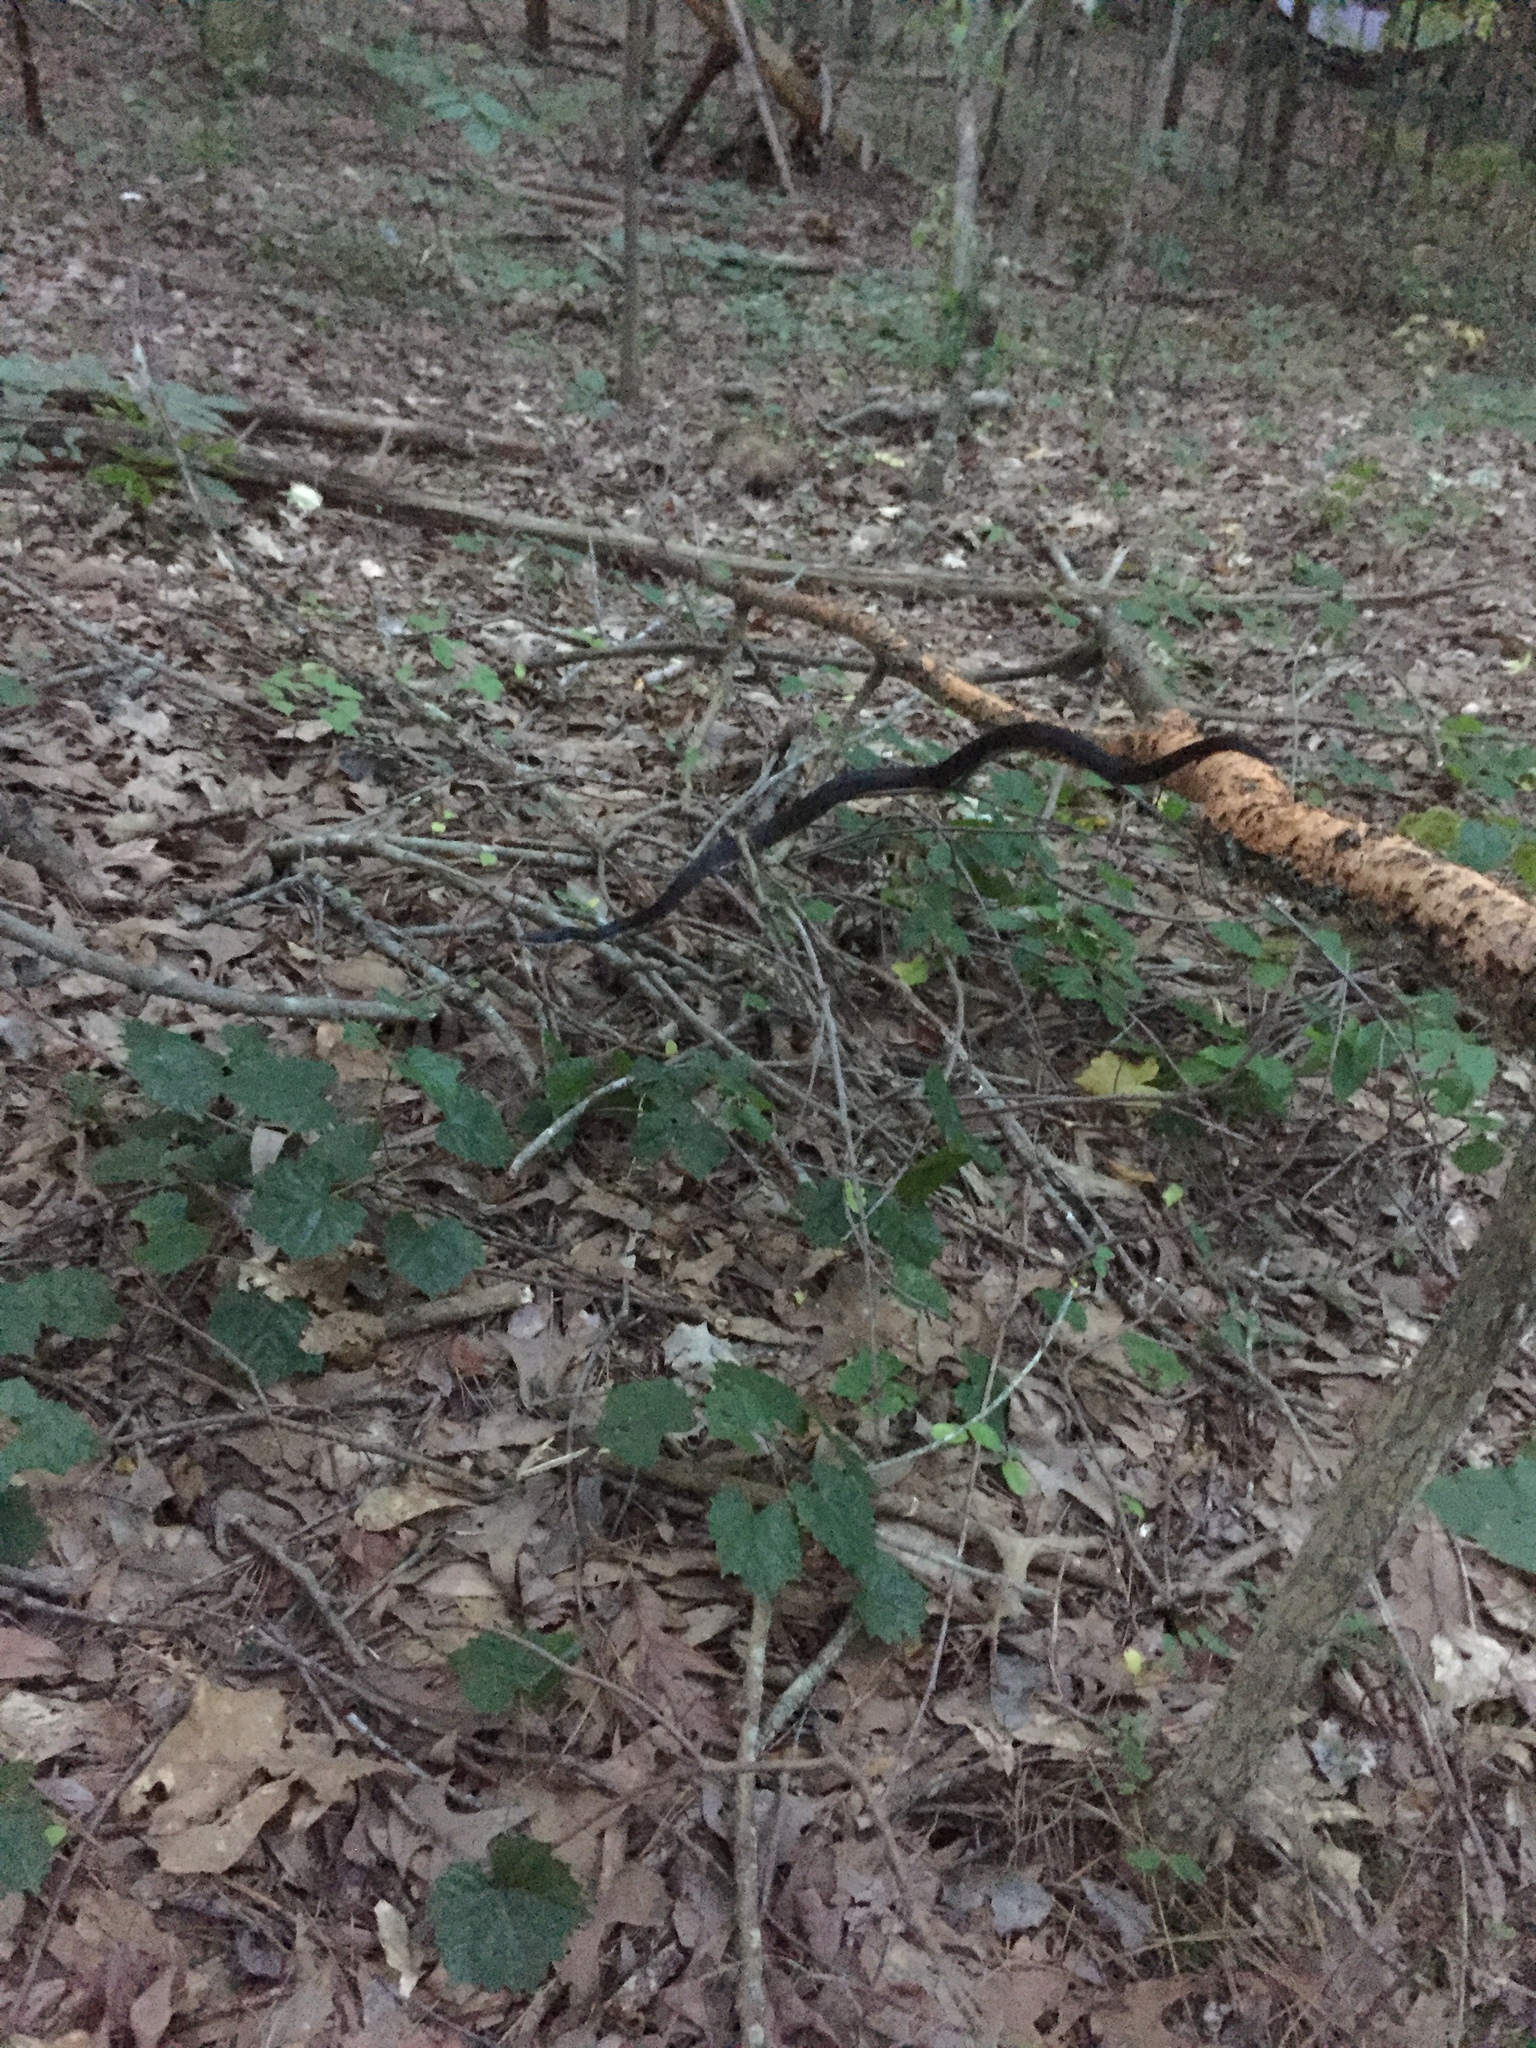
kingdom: Animalia
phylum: Chordata
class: Squamata
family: Colubridae
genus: Pantherophis
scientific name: Pantherophis alleghaniensis
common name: Eastern rat snake
